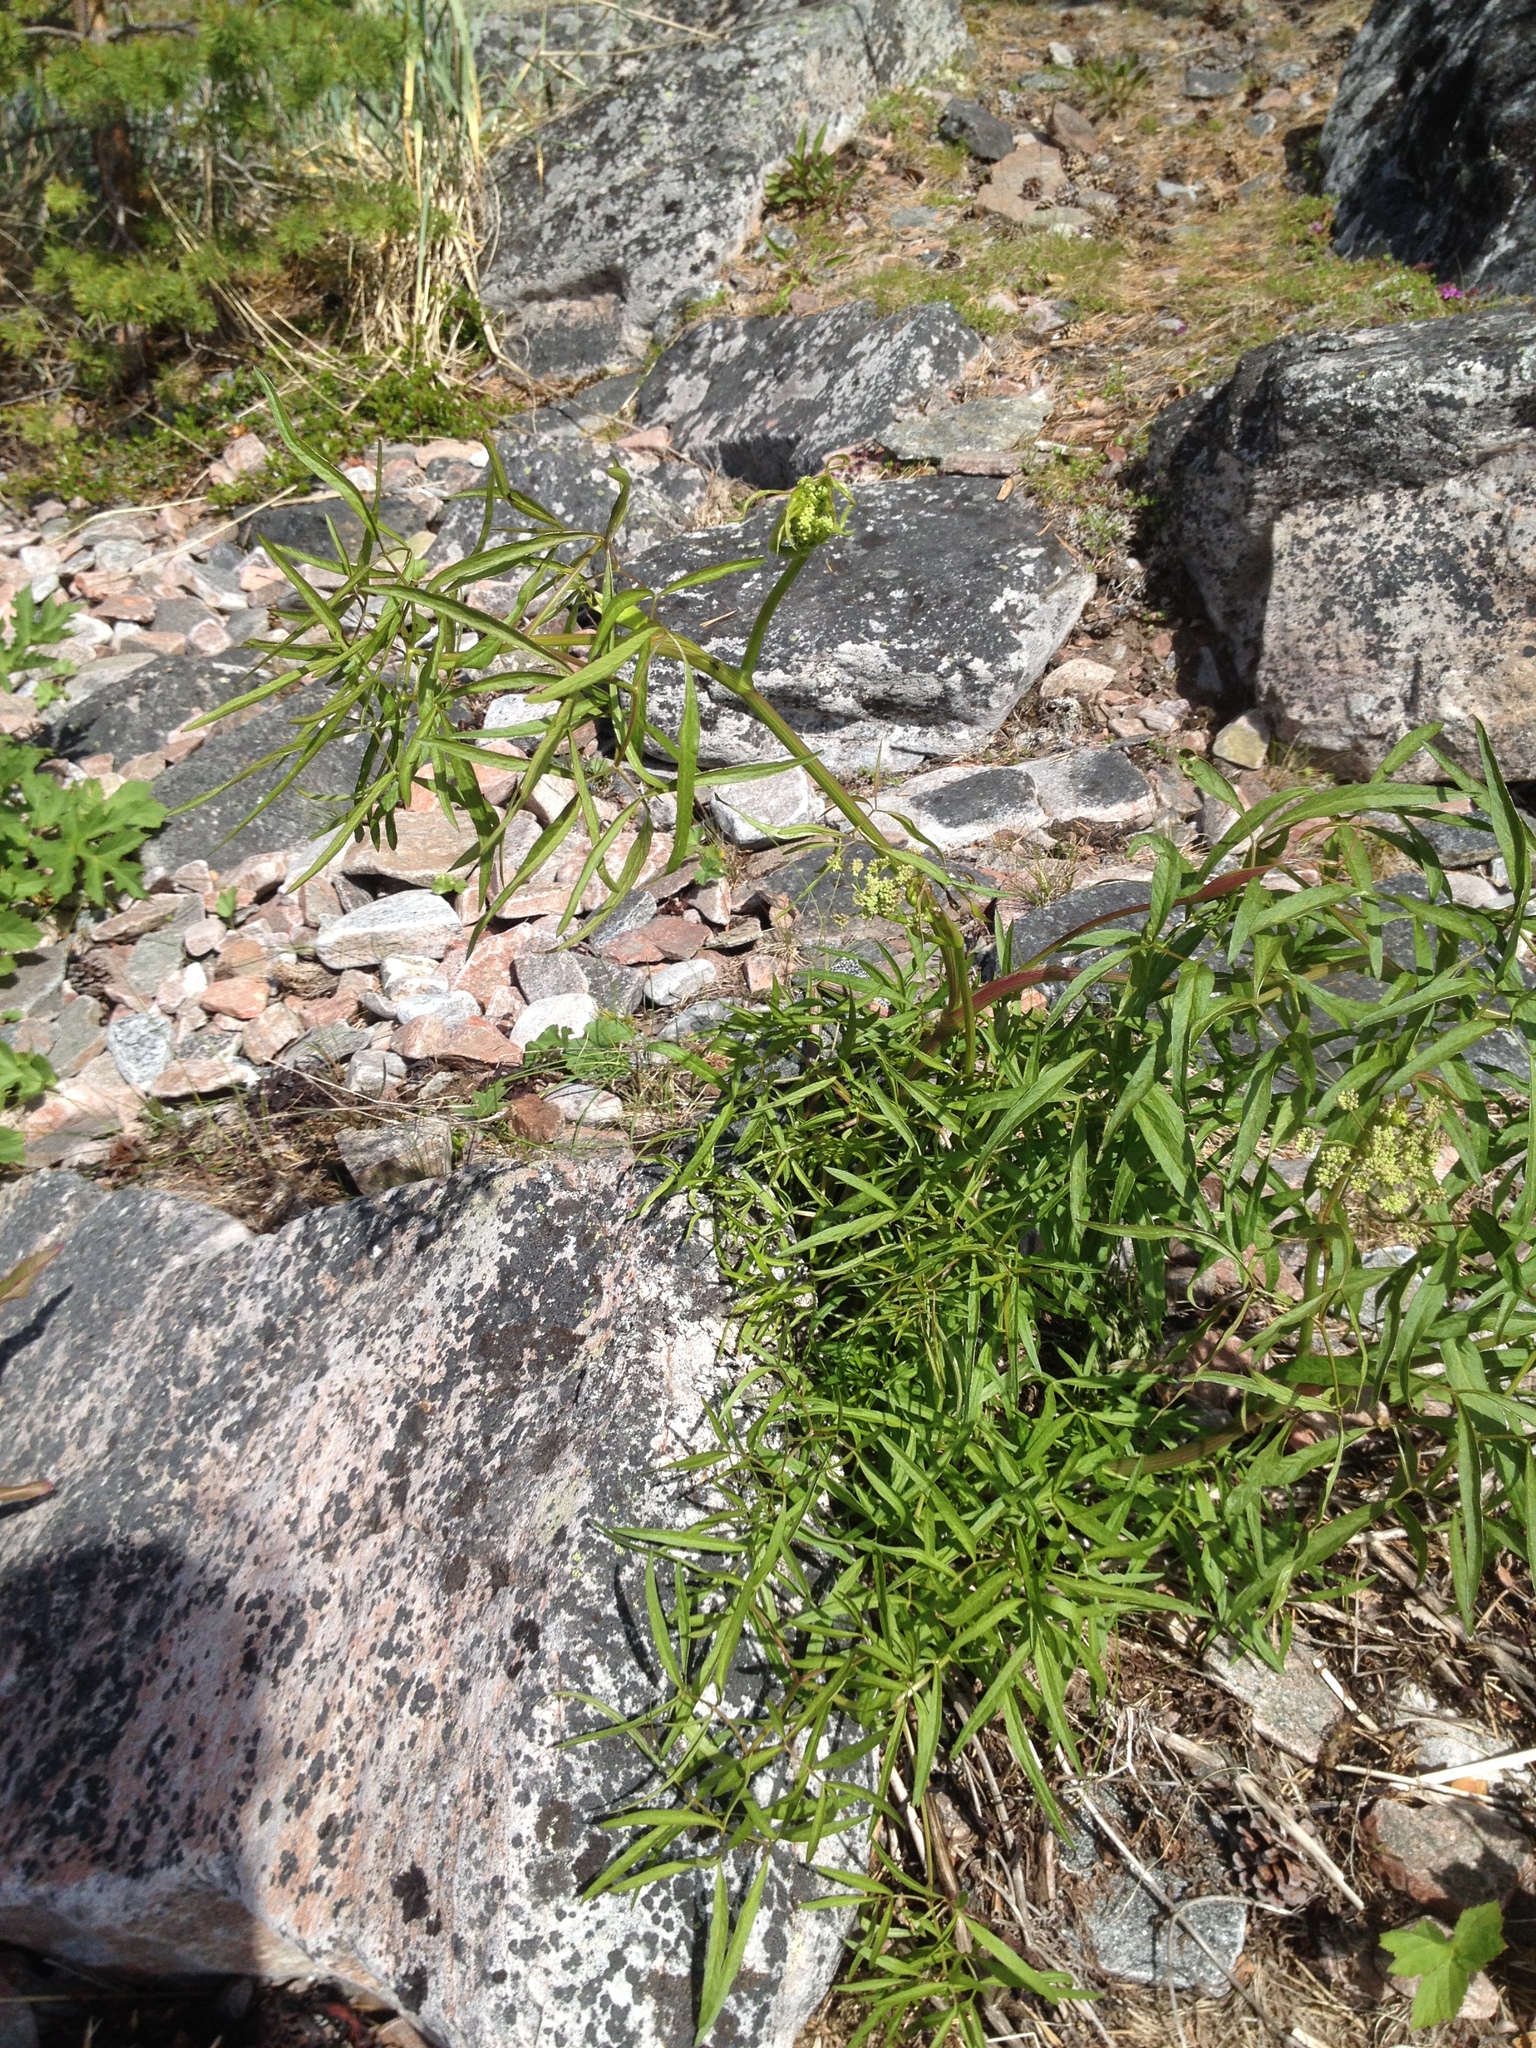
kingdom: Plantae
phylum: Tracheophyta
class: Magnoliopsida
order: Apiales
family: Apiaceae
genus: Cenolophium
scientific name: Cenolophium fischeri
